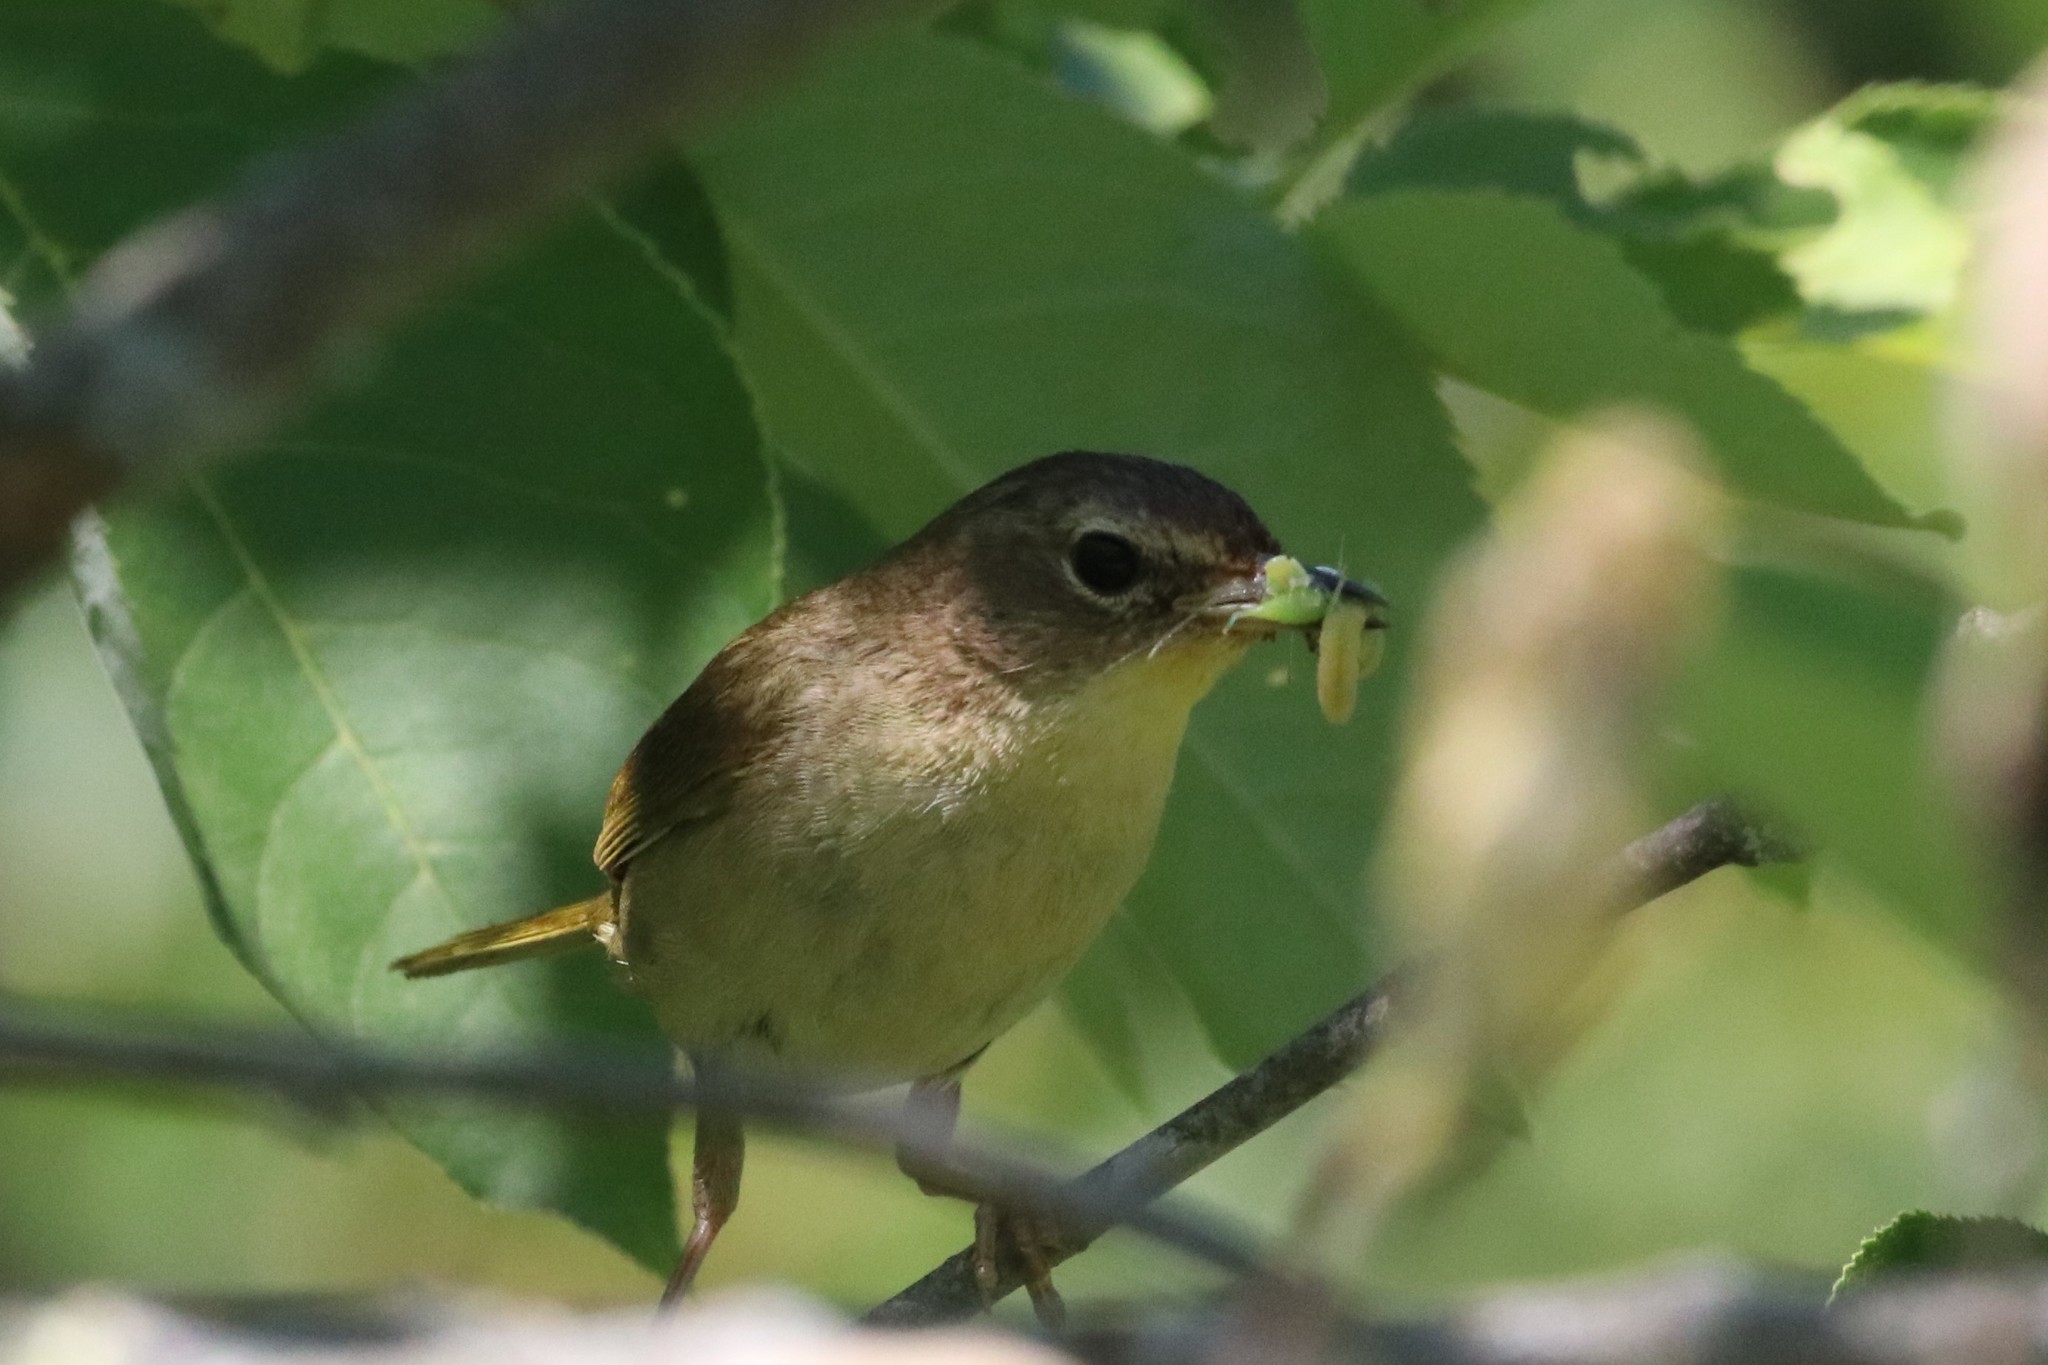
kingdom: Animalia
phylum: Chordata
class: Aves
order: Passeriformes
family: Parulidae
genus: Geothlypis
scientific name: Geothlypis trichas
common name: Common yellowthroat
